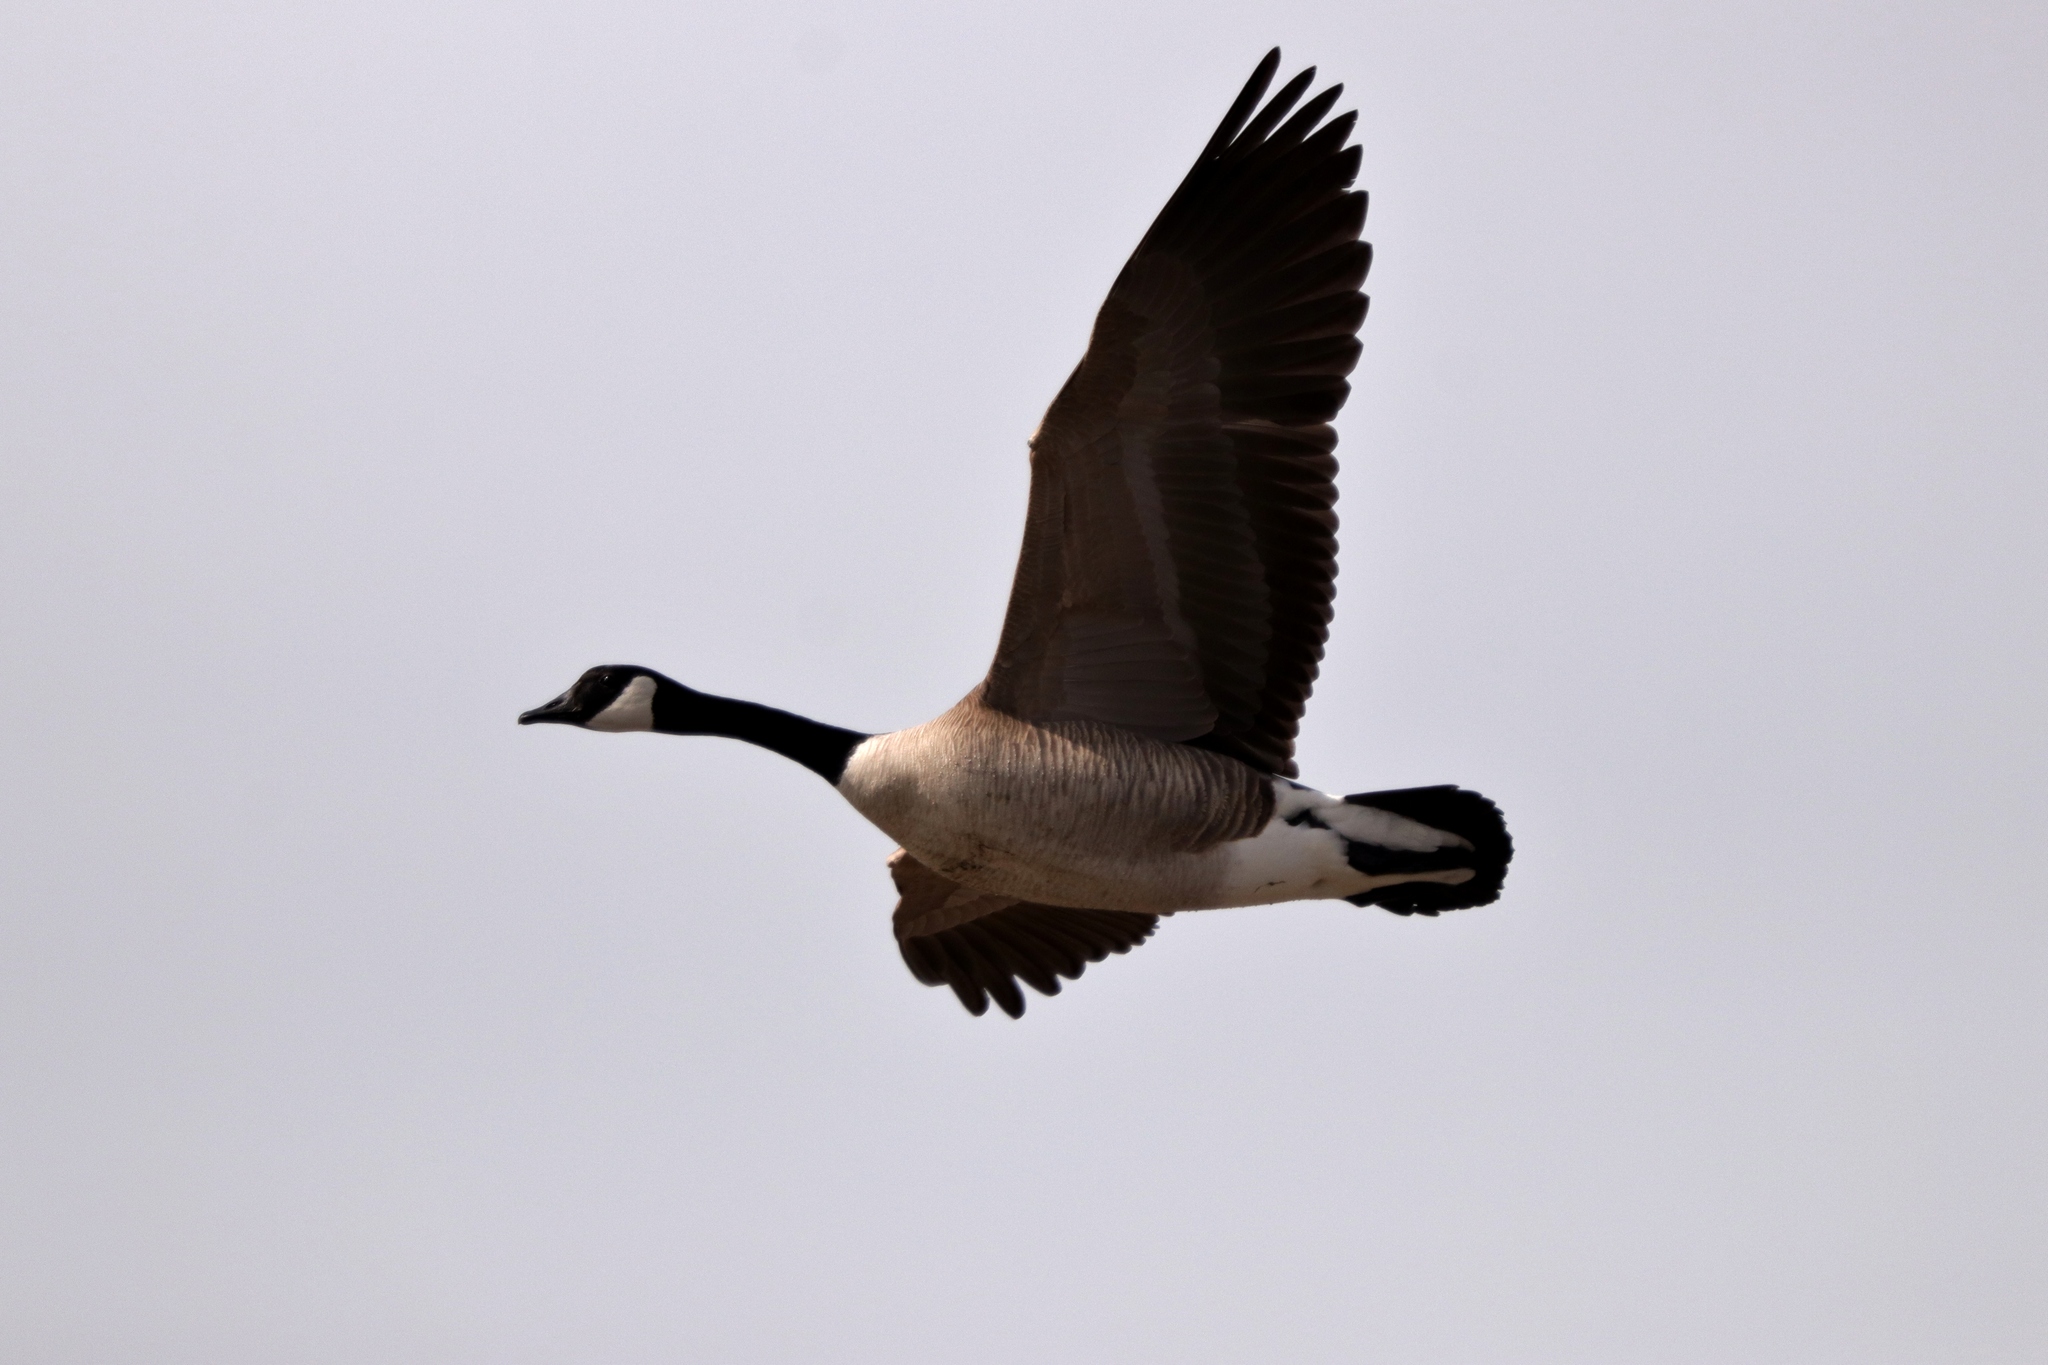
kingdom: Animalia
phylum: Chordata
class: Aves
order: Anseriformes
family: Anatidae
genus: Branta
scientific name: Branta canadensis
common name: Canada goose
